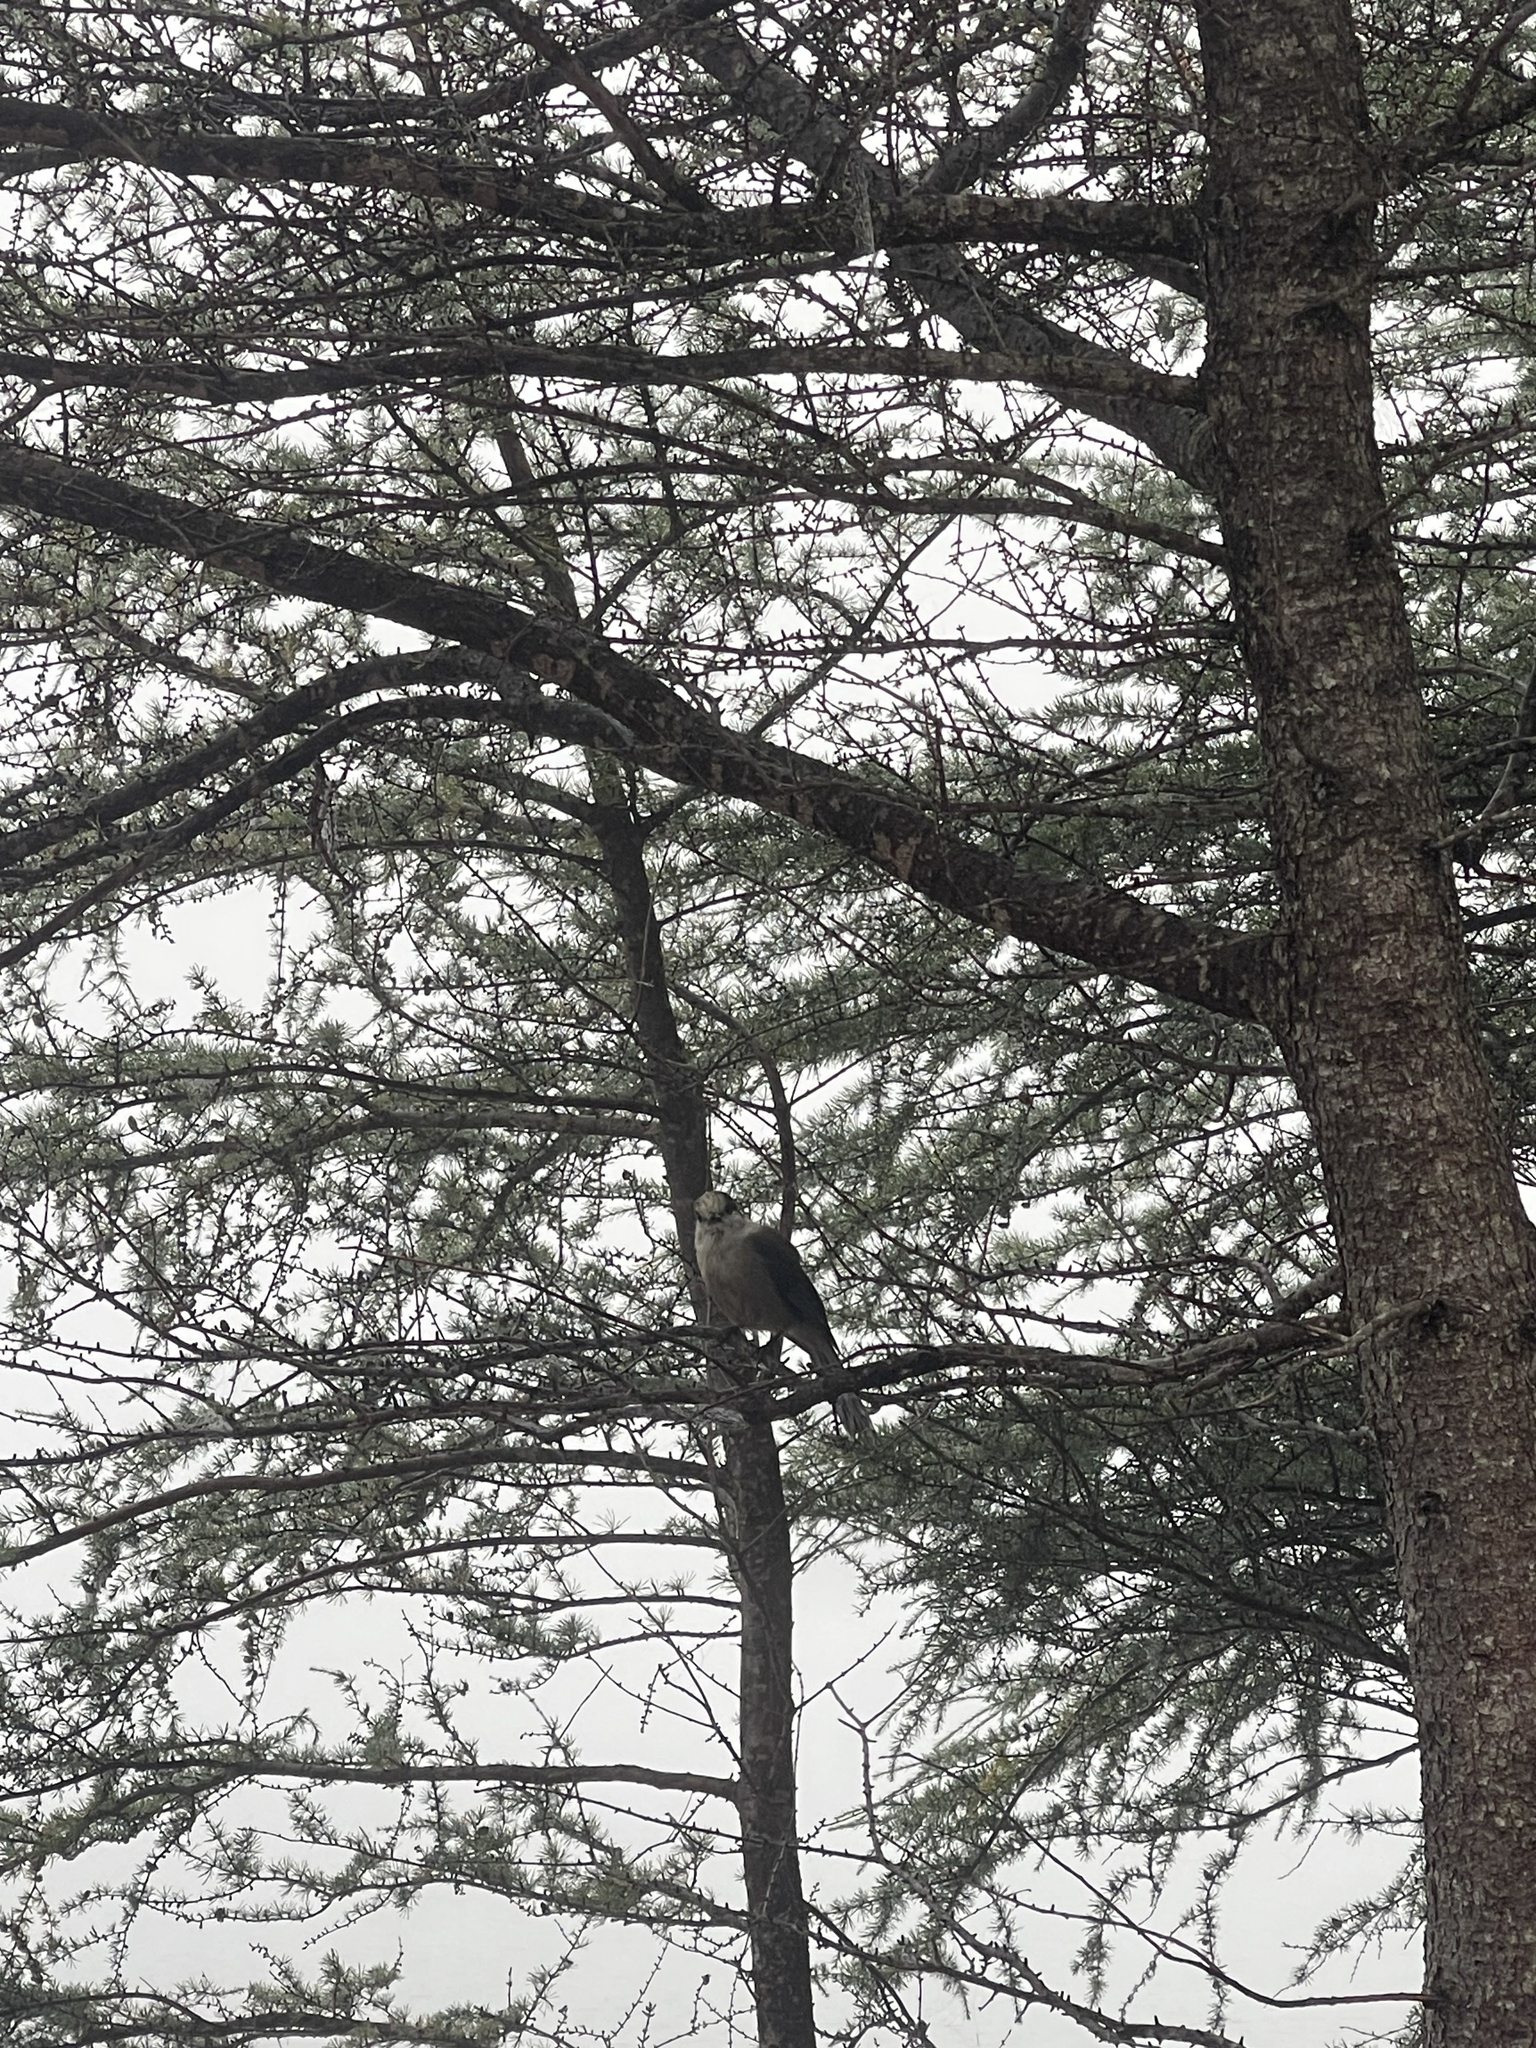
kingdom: Animalia
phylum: Chordata
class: Aves
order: Passeriformes
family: Corvidae
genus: Perisoreus
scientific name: Perisoreus canadensis
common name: Gray jay
